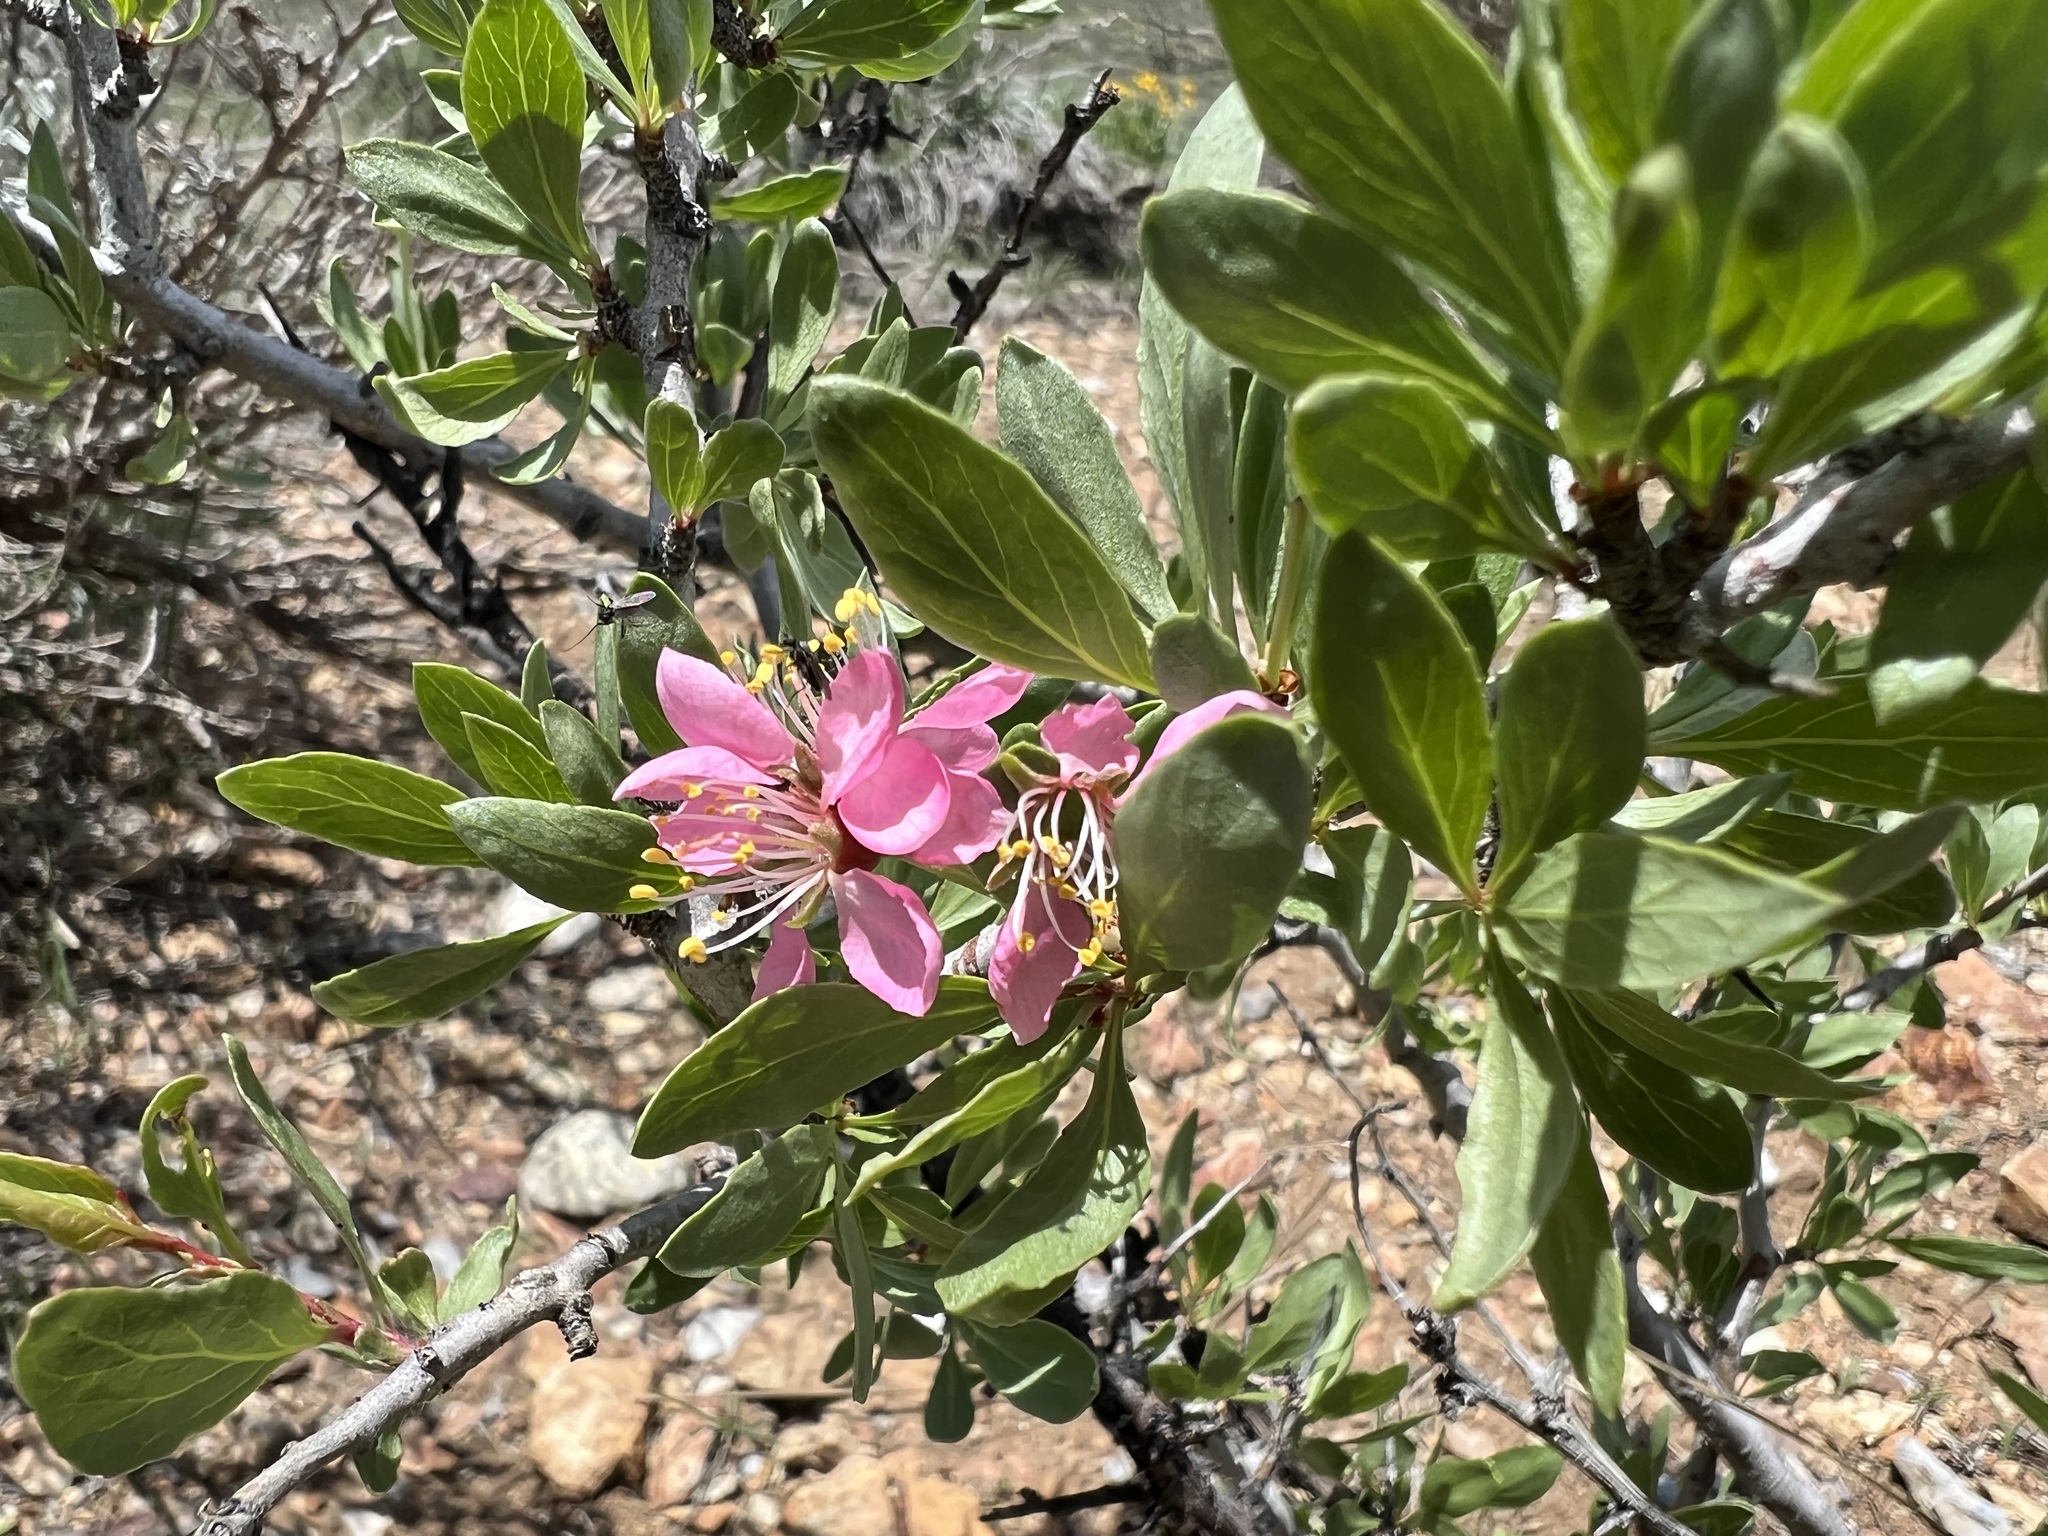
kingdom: Plantae
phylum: Tracheophyta
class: Magnoliopsida
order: Rosales
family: Rosaceae
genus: Prunus
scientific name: Prunus andersonii
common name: Desert peach
